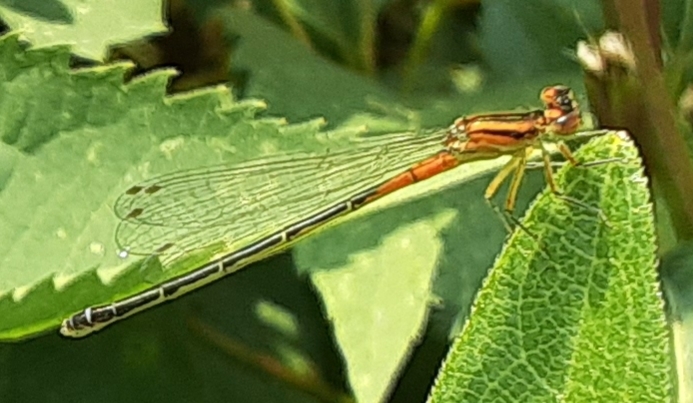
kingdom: Animalia
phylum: Arthropoda
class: Insecta
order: Odonata
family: Coenagrionidae
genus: Ischnura
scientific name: Ischnura verticalis
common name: Eastern forktail
